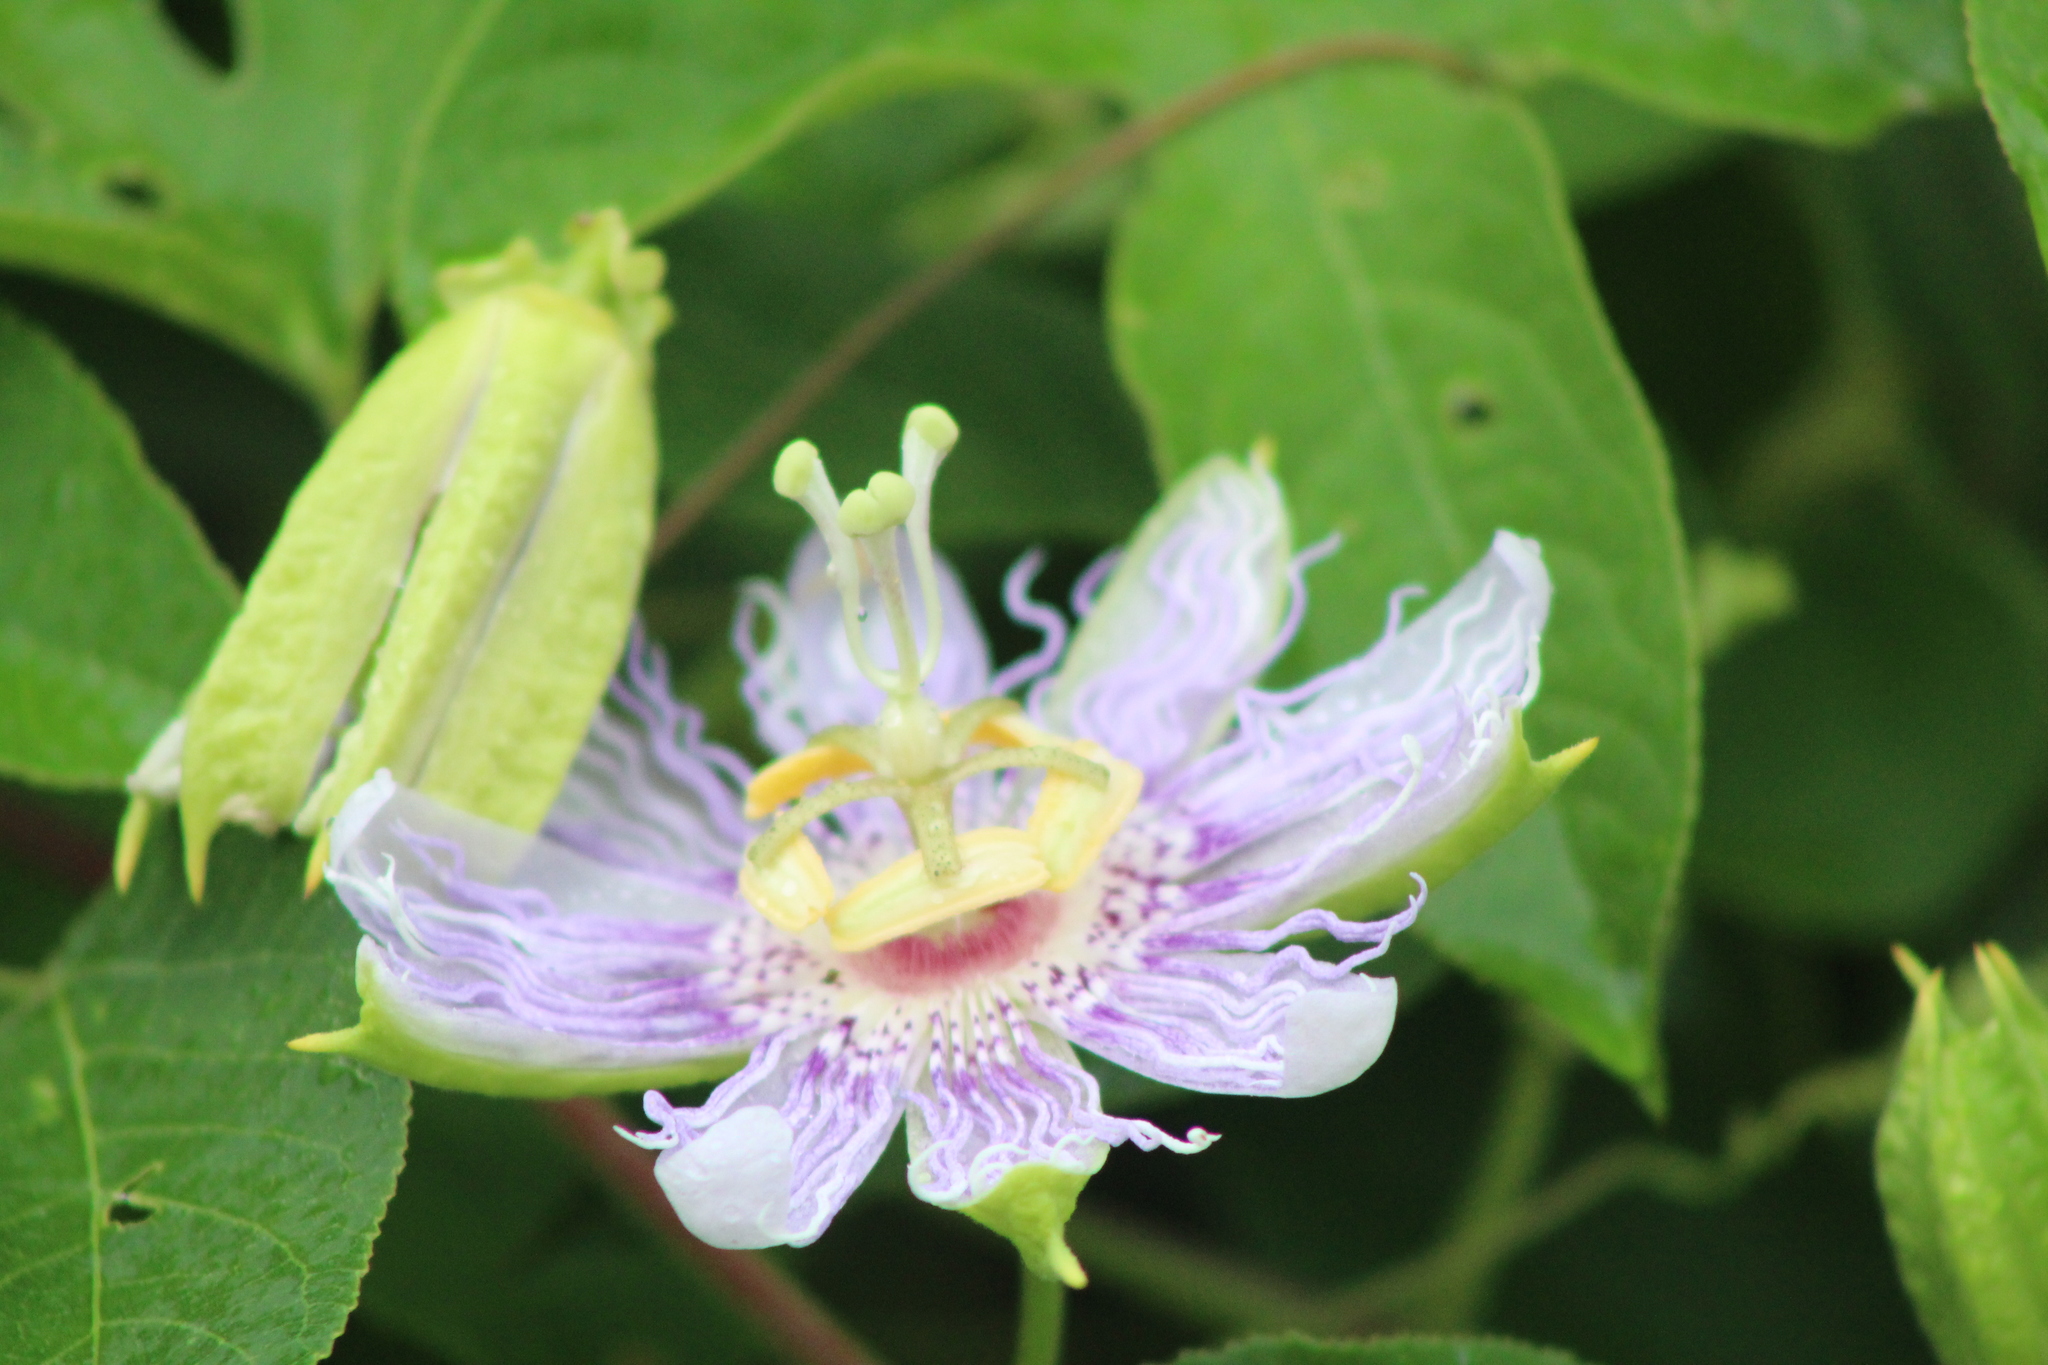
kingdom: Plantae
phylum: Tracheophyta
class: Magnoliopsida
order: Malpighiales
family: Passifloraceae
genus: Passiflora
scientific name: Passiflora incarnata
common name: Apricot-vine
